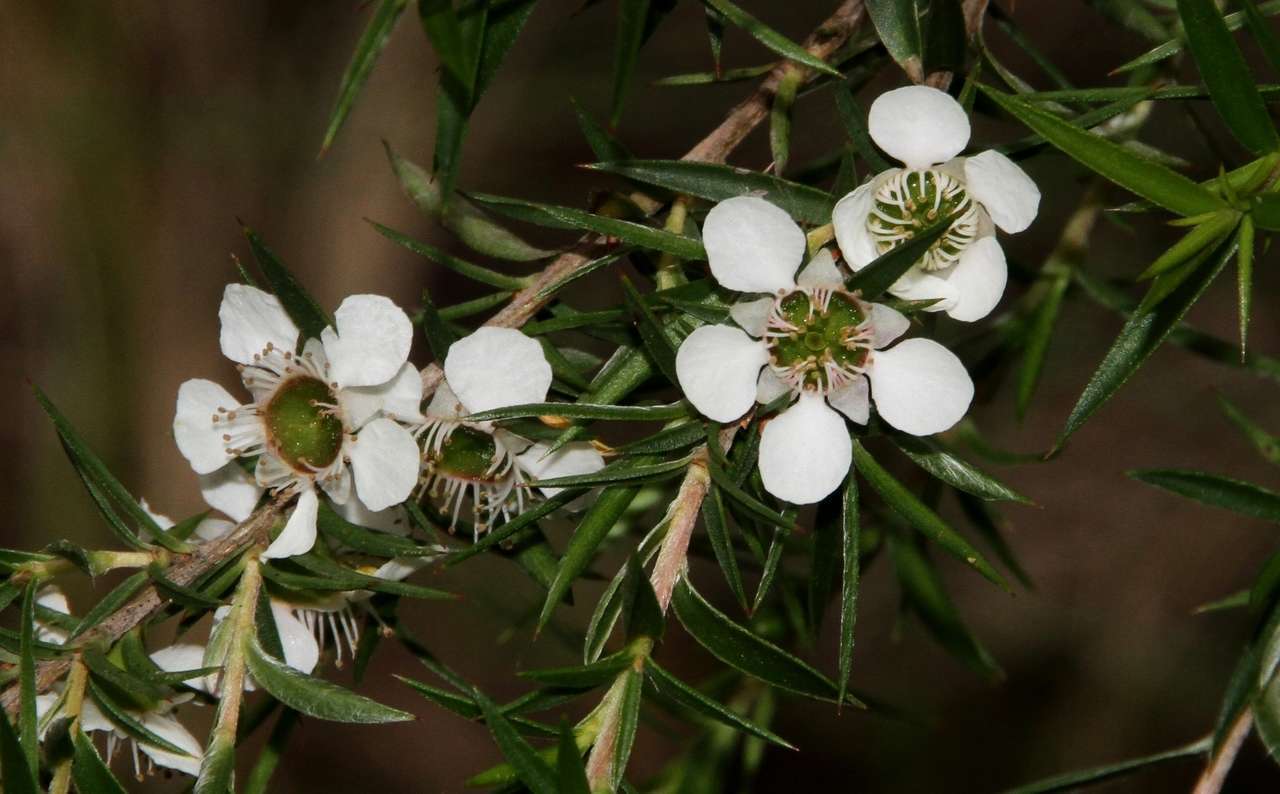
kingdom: Plantae
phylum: Tracheophyta
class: Magnoliopsida
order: Myrtales
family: Myrtaceae
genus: Leptospermum
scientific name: Leptospermum continentale
